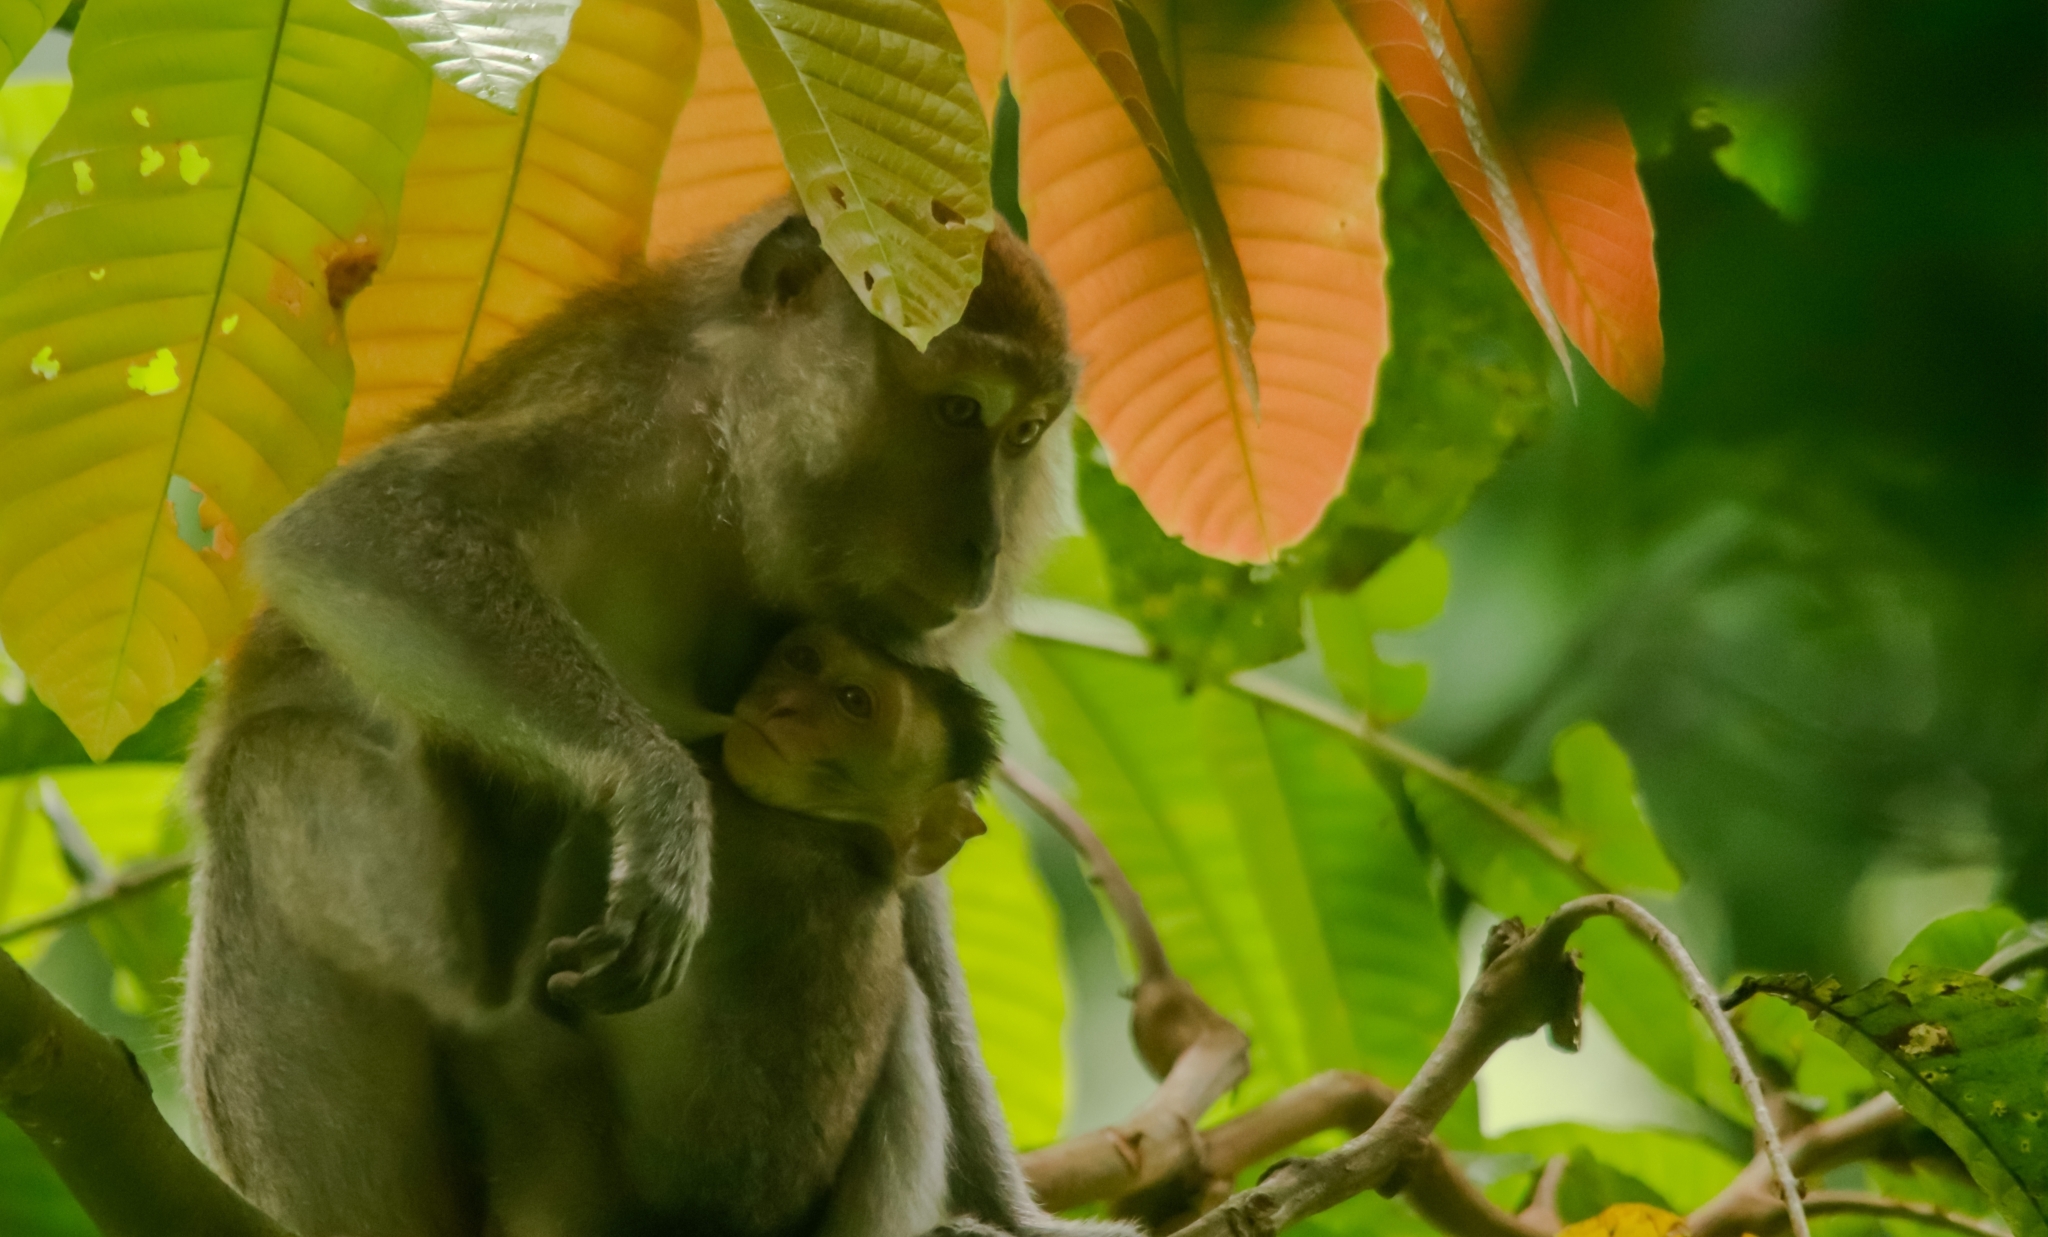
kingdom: Animalia
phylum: Chordata
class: Mammalia
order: Primates
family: Cercopithecidae
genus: Macaca
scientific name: Macaca fascicularis
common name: Crab-eating macaque
